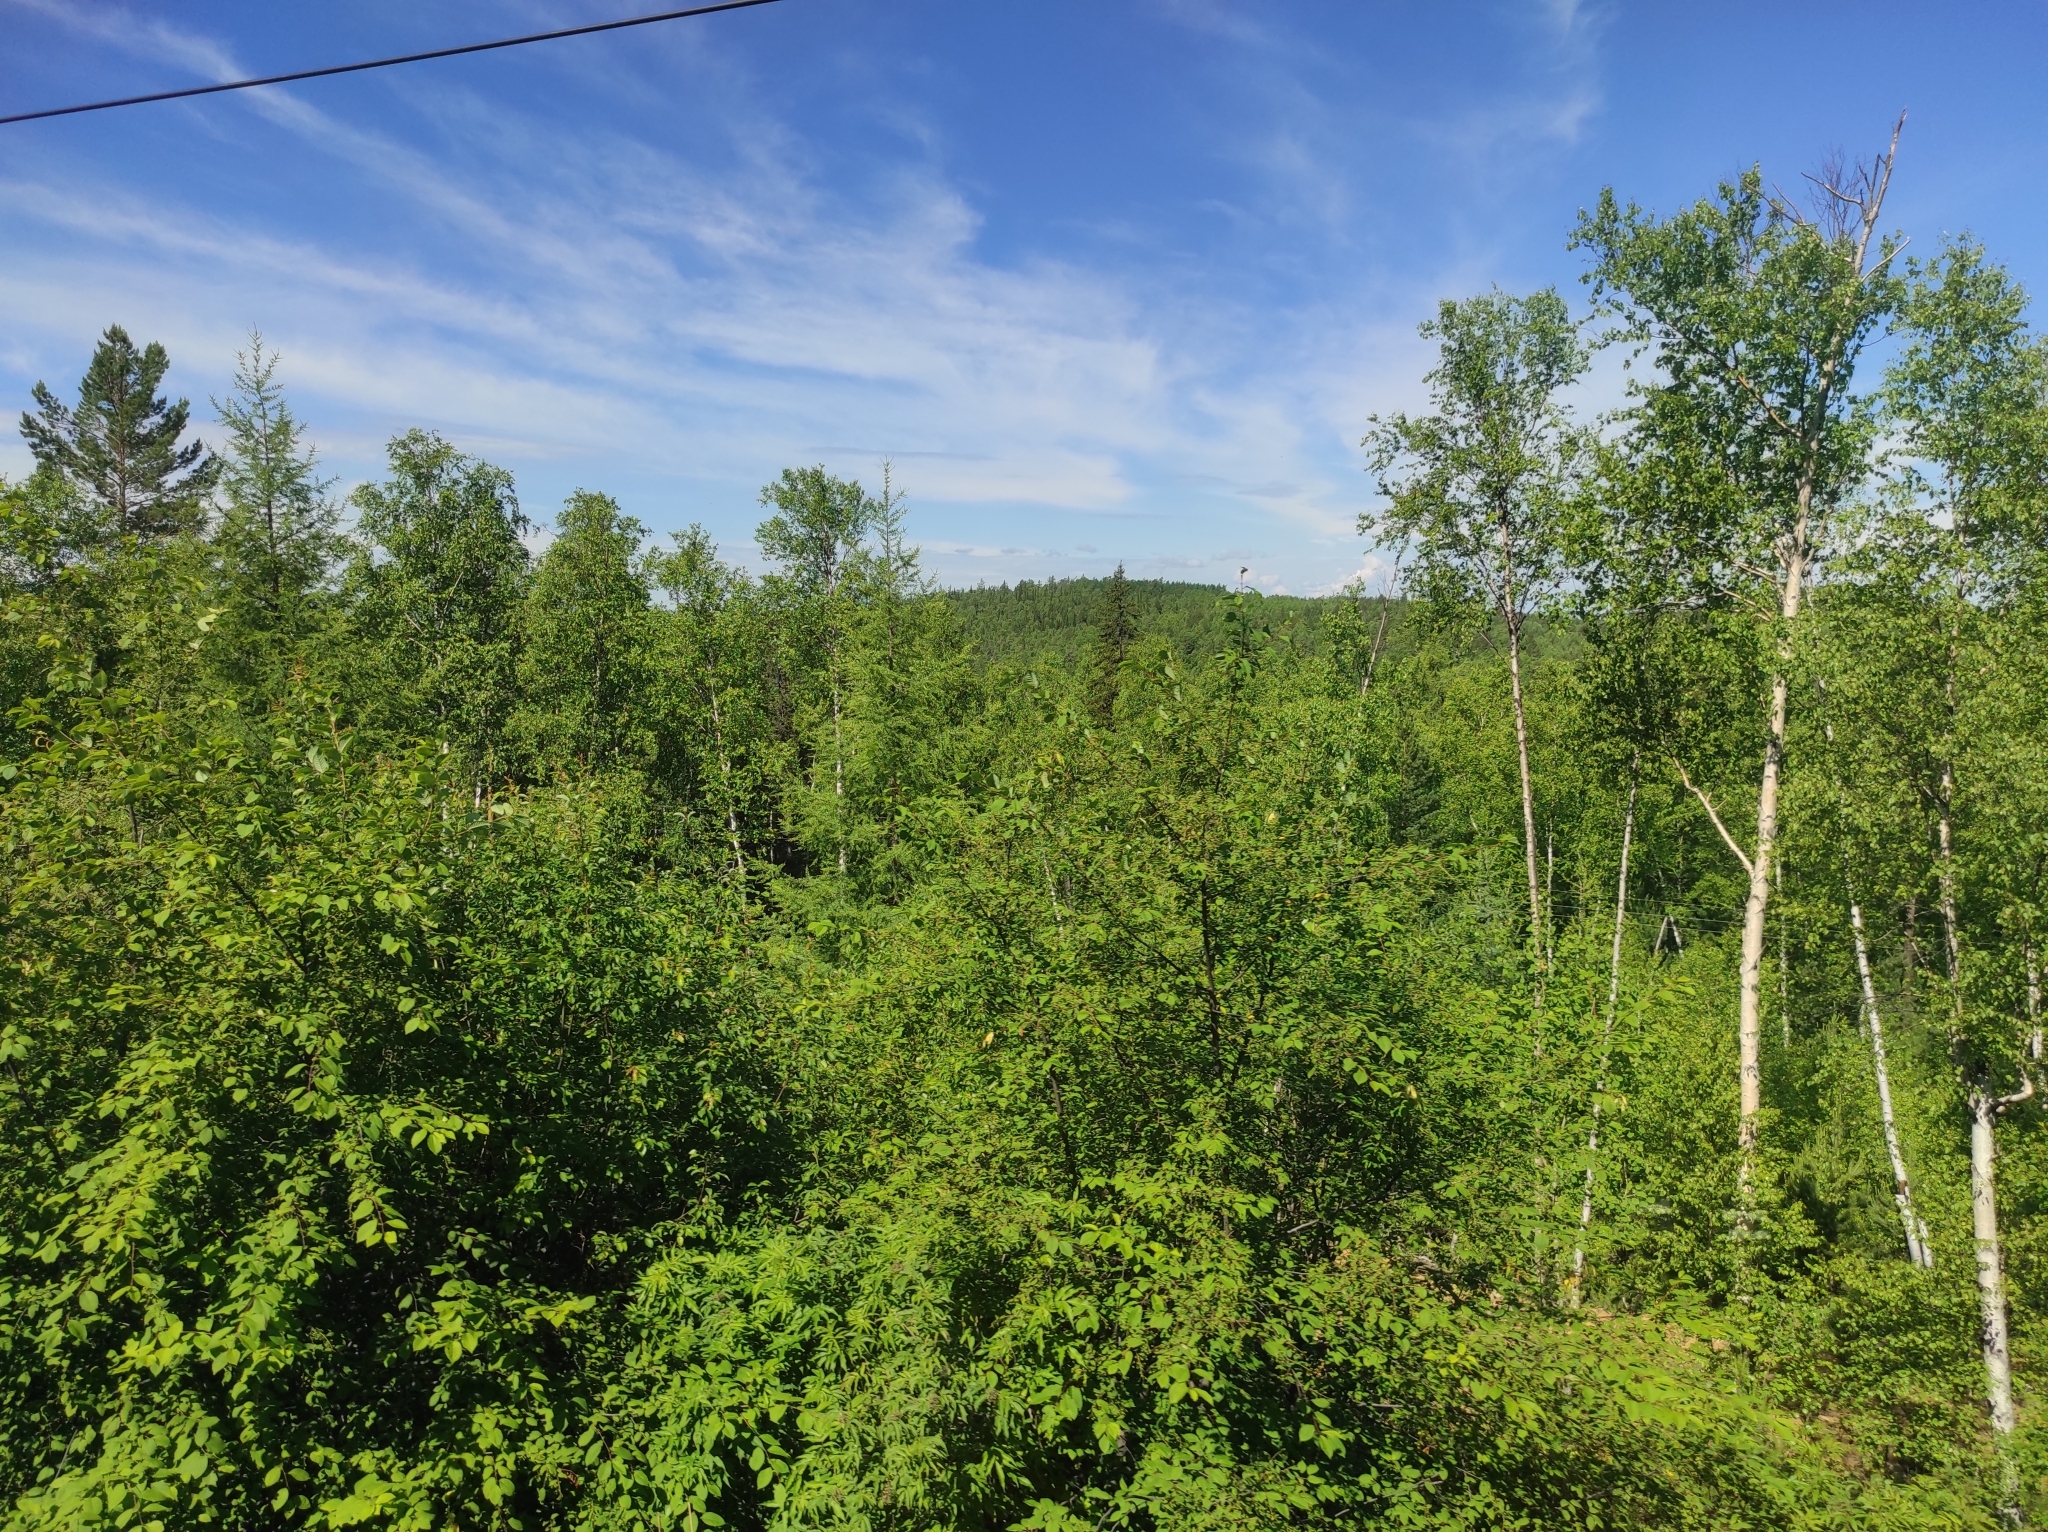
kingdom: Plantae
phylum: Tracheophyta
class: Pinopsida
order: Pinales
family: Pinaceae
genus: Larix
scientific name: Larix sibirica
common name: Siberian larch
